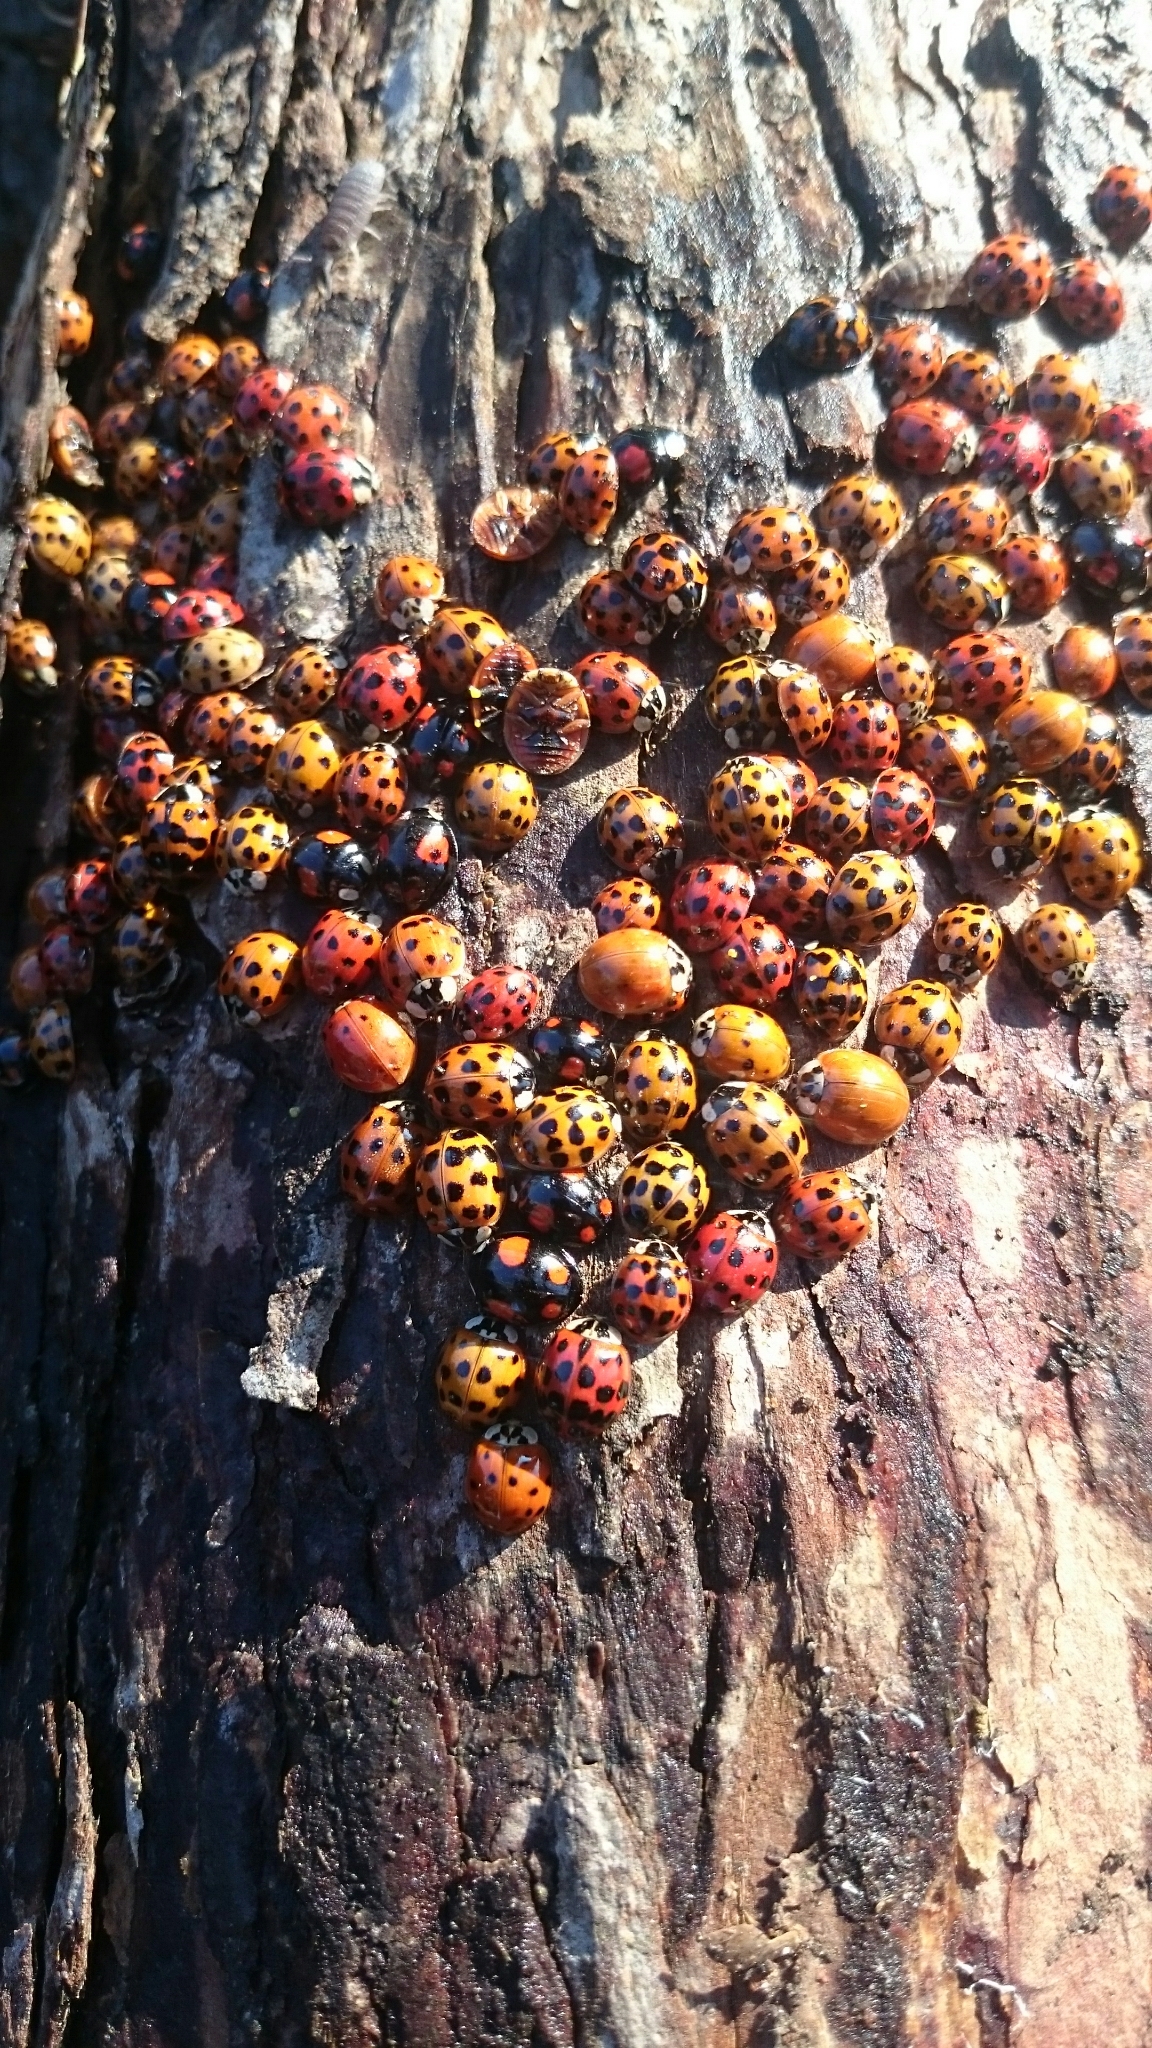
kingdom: Animalia
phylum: Arthropoda
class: Insecta
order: Coleoptera
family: Coccinellidae
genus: Harmonia
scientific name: Harmonia axyridis
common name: Harlequin ladybird
